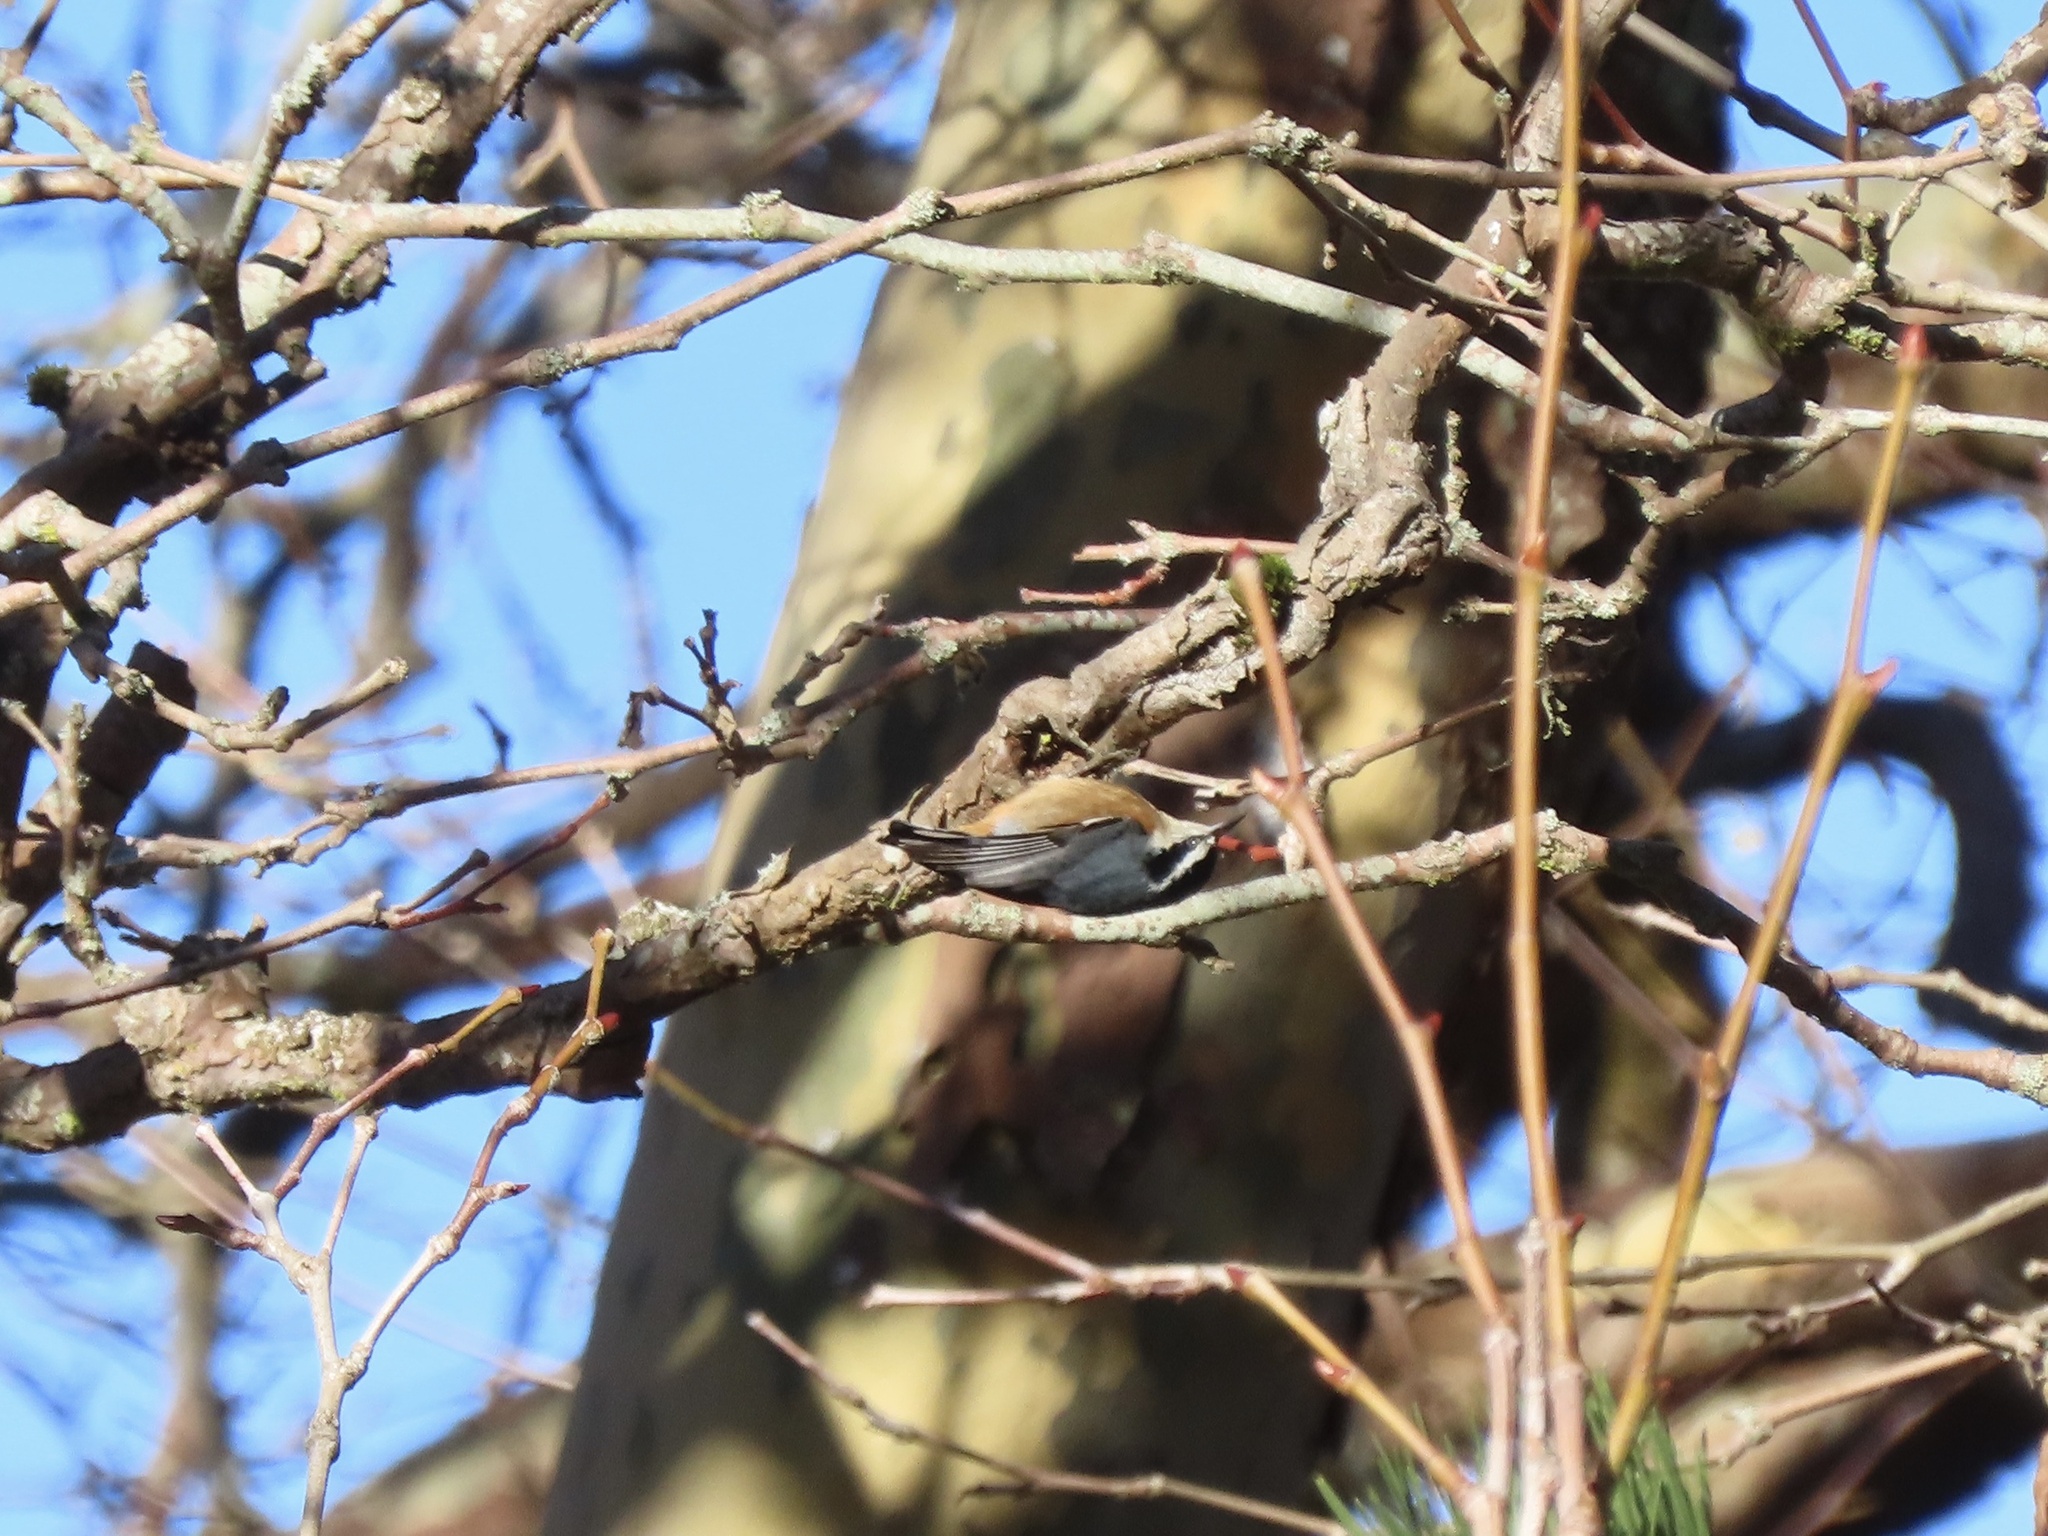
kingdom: Animalia
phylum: Chordata
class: Aves
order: Passeriformes
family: Sittidae
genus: Sitta
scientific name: Sitta canadensis
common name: Red-breasted nuthatch
